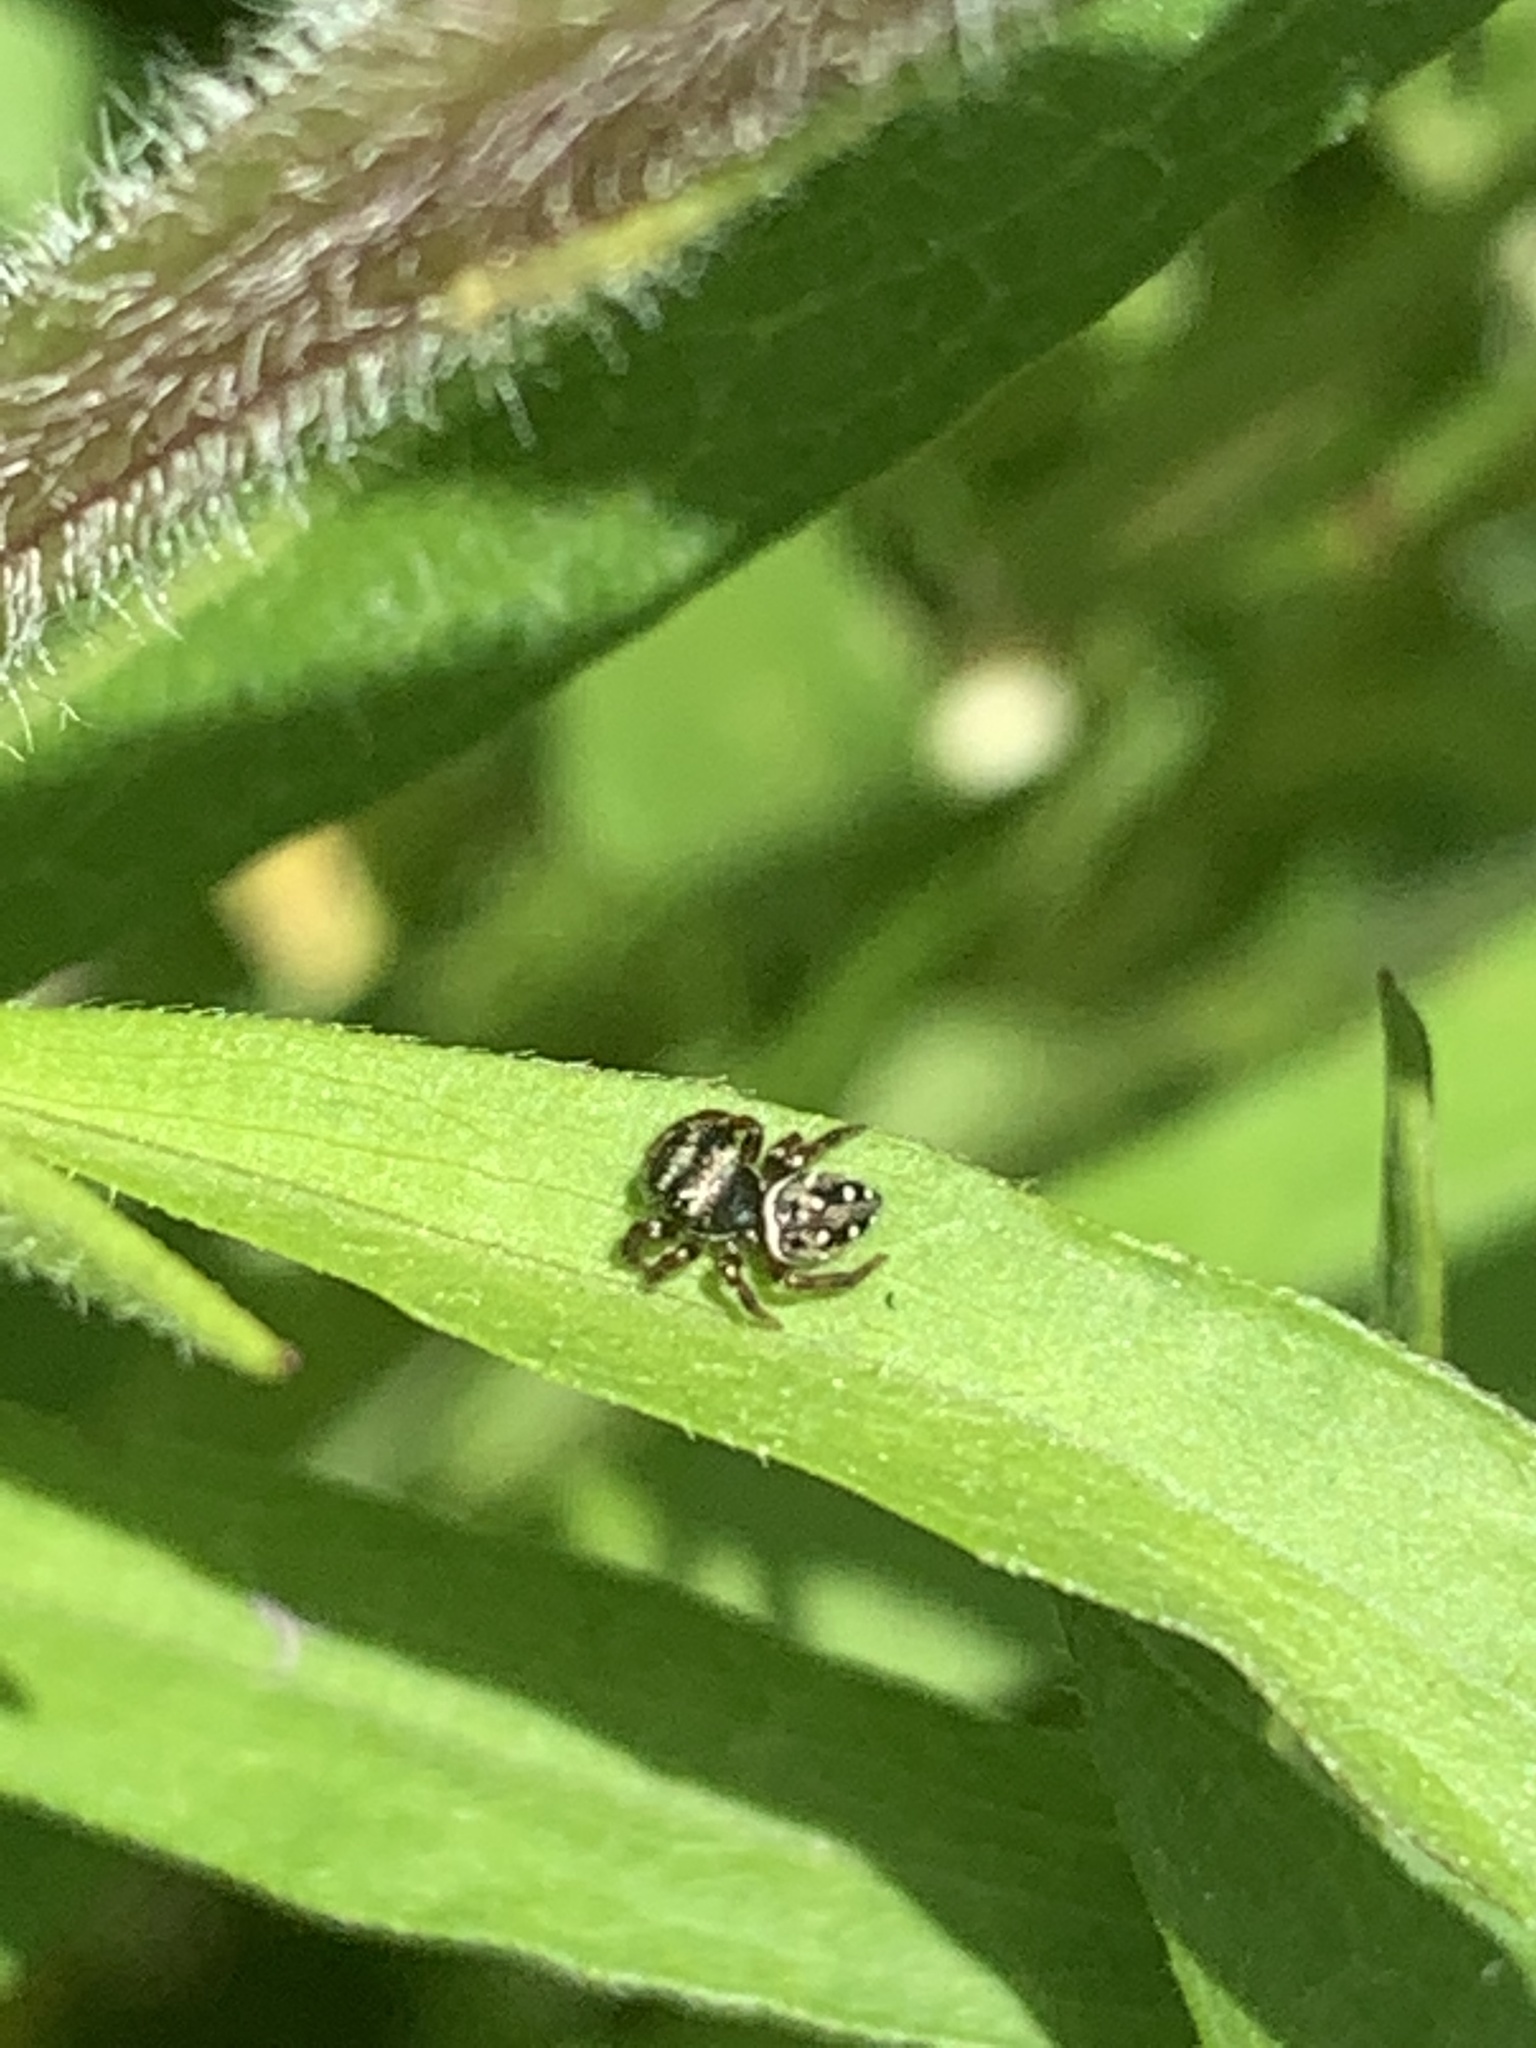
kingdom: Animalia
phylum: Arthropoda
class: Arachnida
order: Araneae
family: Salticidae
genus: Phidippus
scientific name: Phidippus clarus
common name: Brilliant jumping spider
